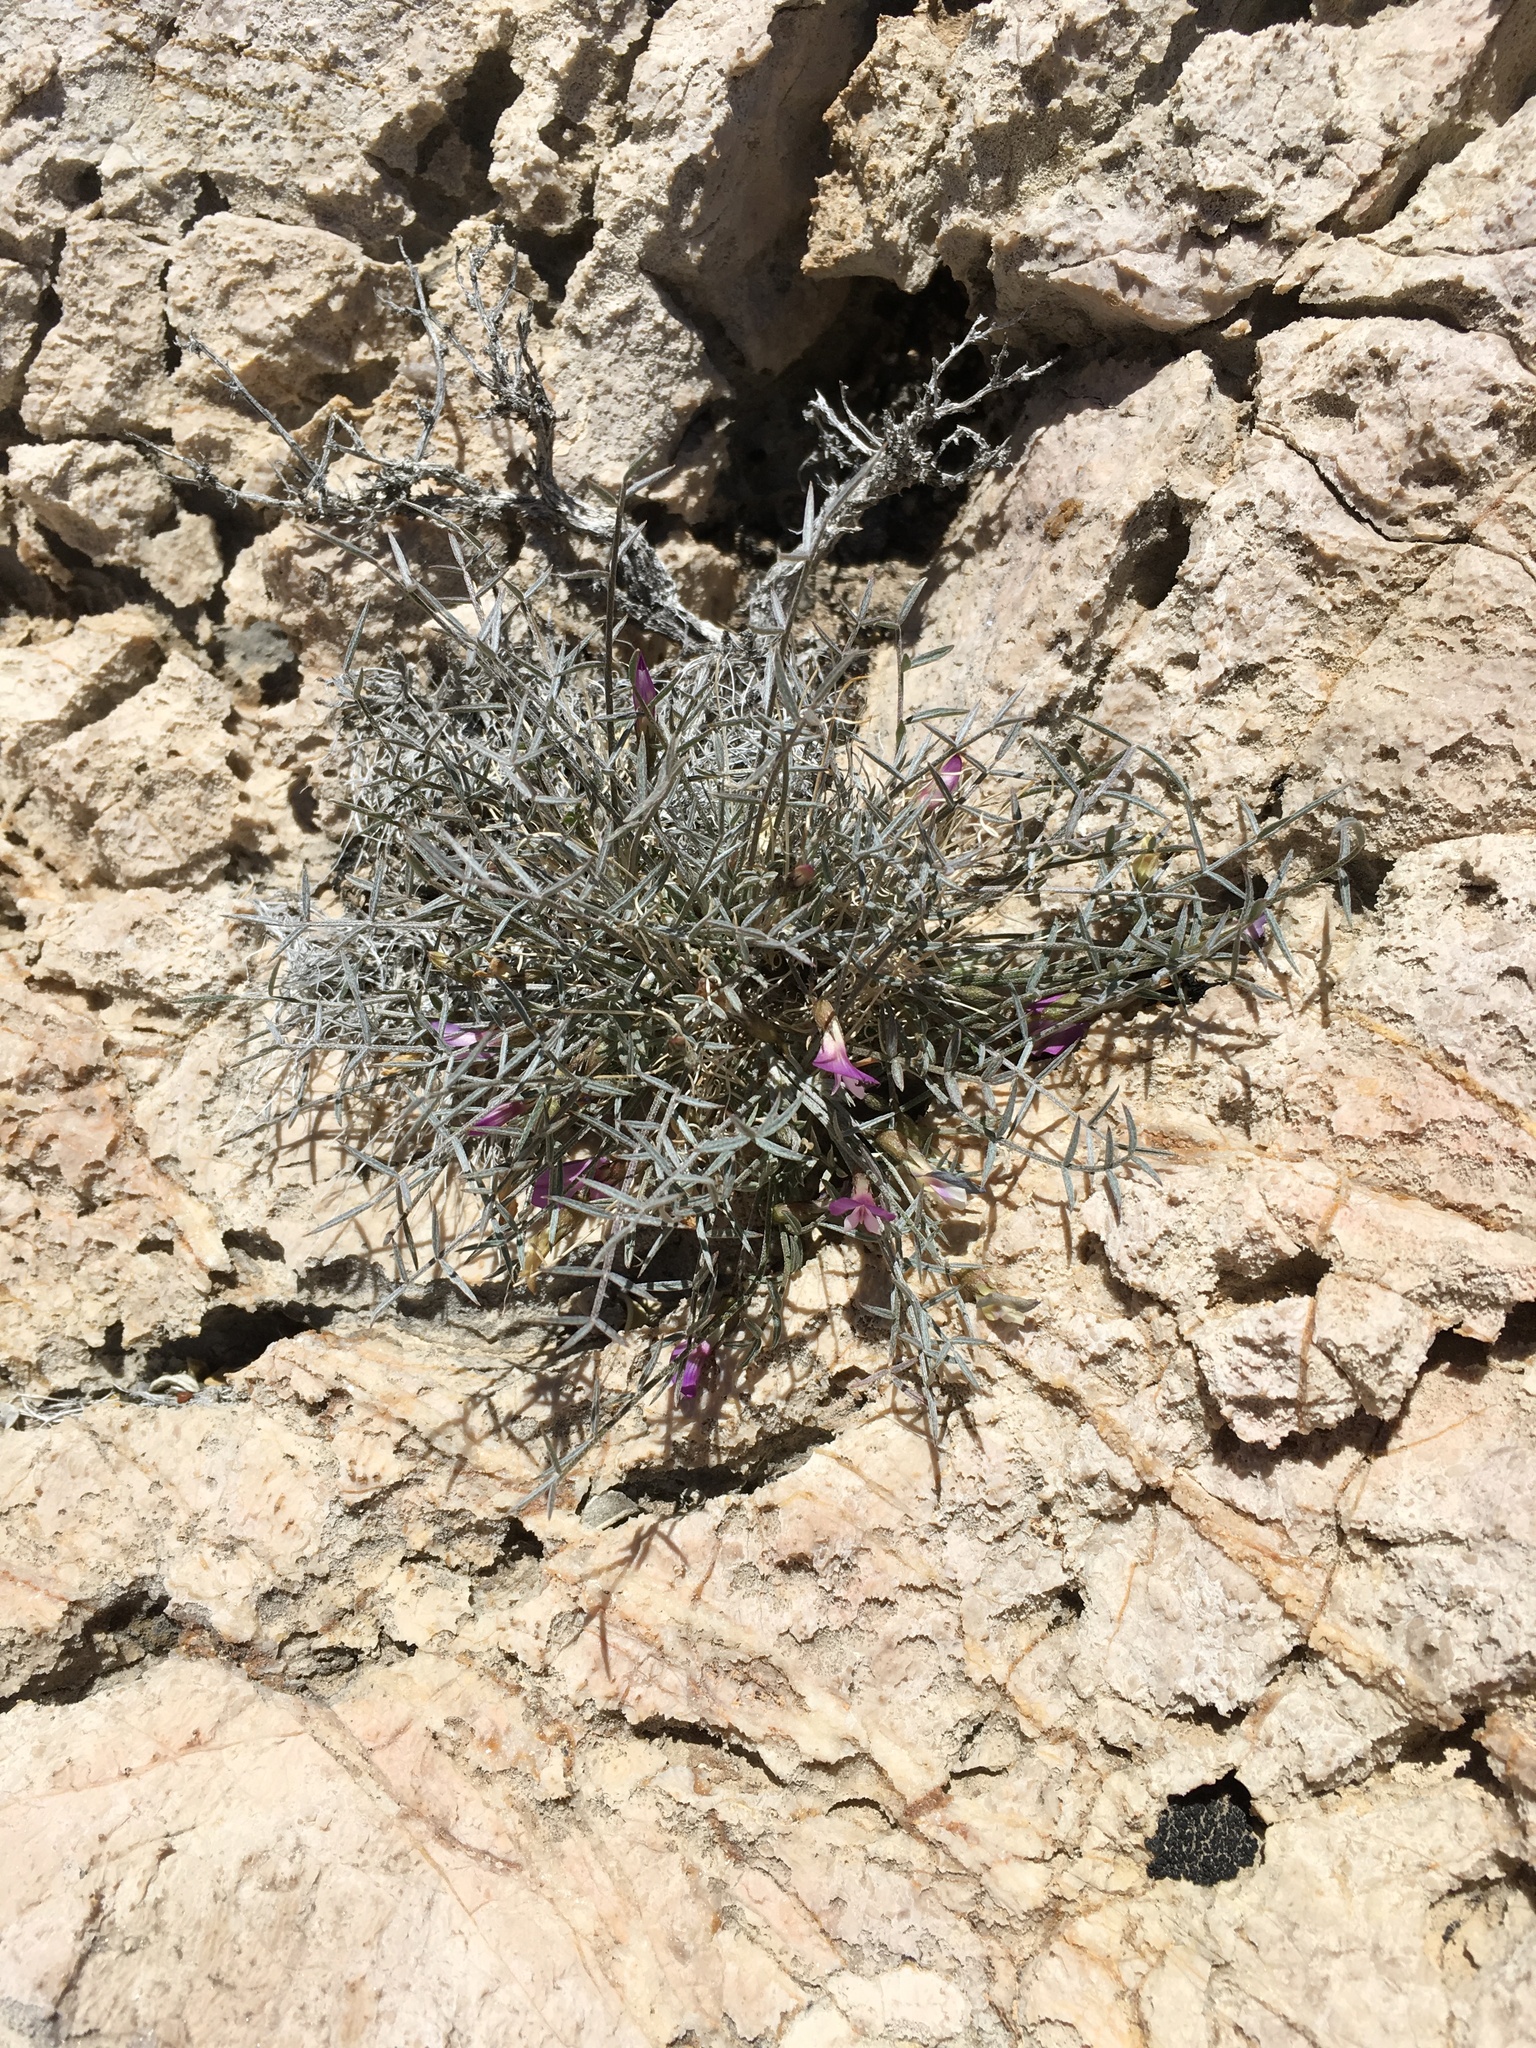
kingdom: Plantae
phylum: Tracheophyta
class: Magnoliopsida
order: Fabales
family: Fabaceae
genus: Astragalus
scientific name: Astragalus panamintensis
